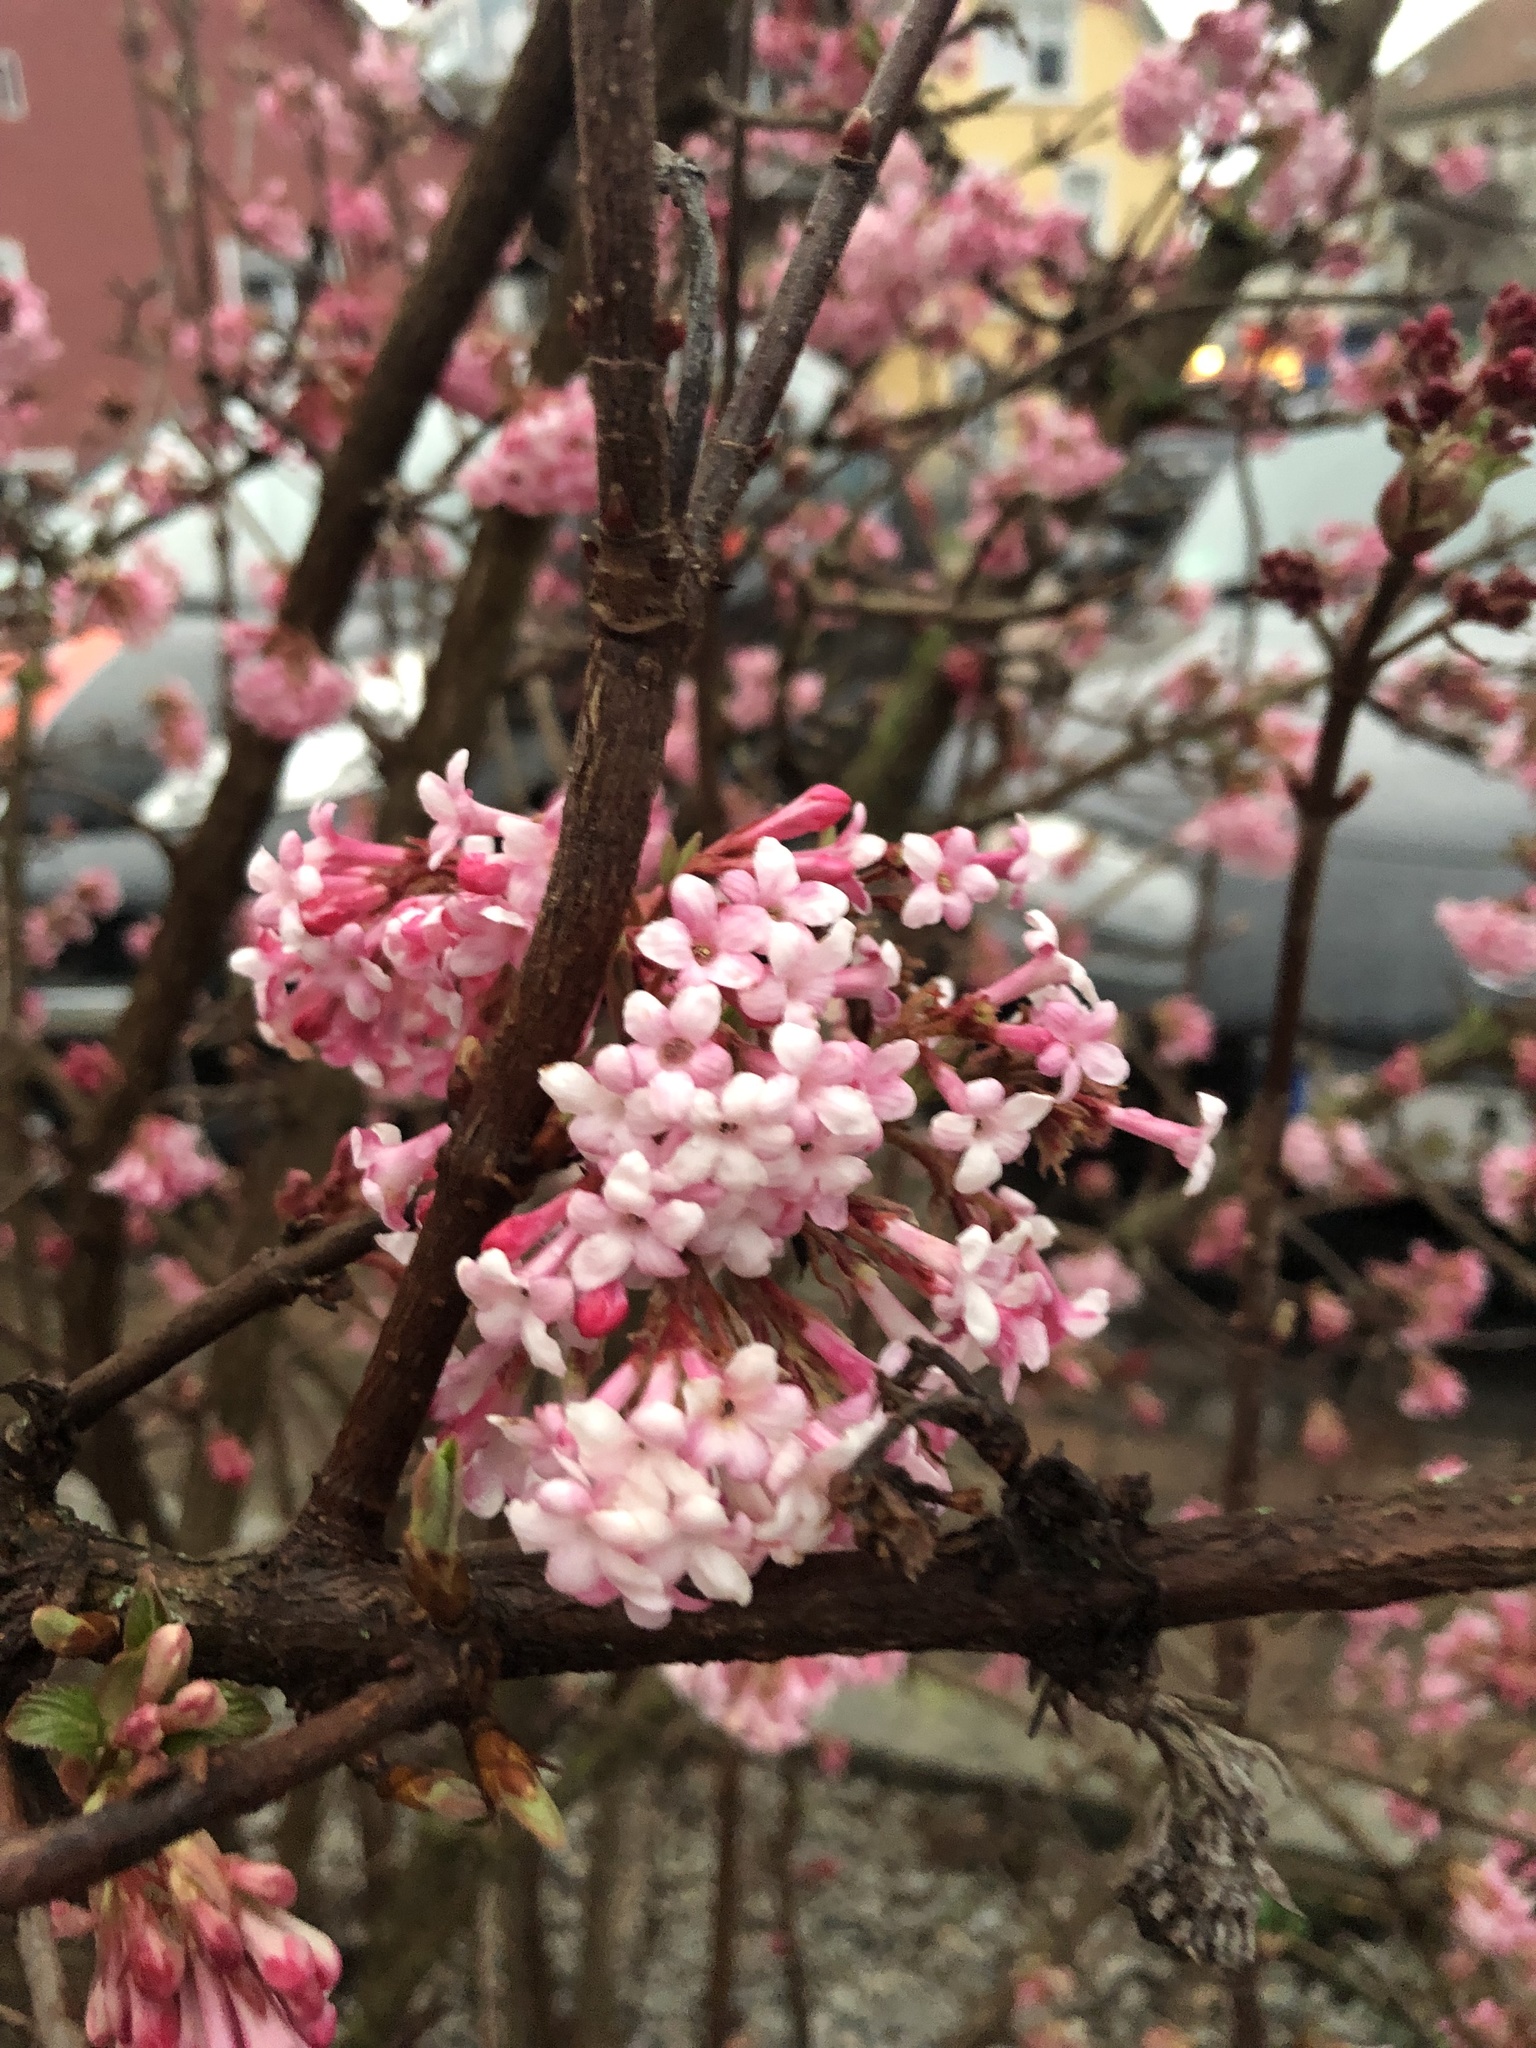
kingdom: Plantae
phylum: Tracheophyta
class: Magnoliopsida
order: Dipsacales
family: Viburnaceae
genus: Viburnum
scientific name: Viburnum bodnantense
